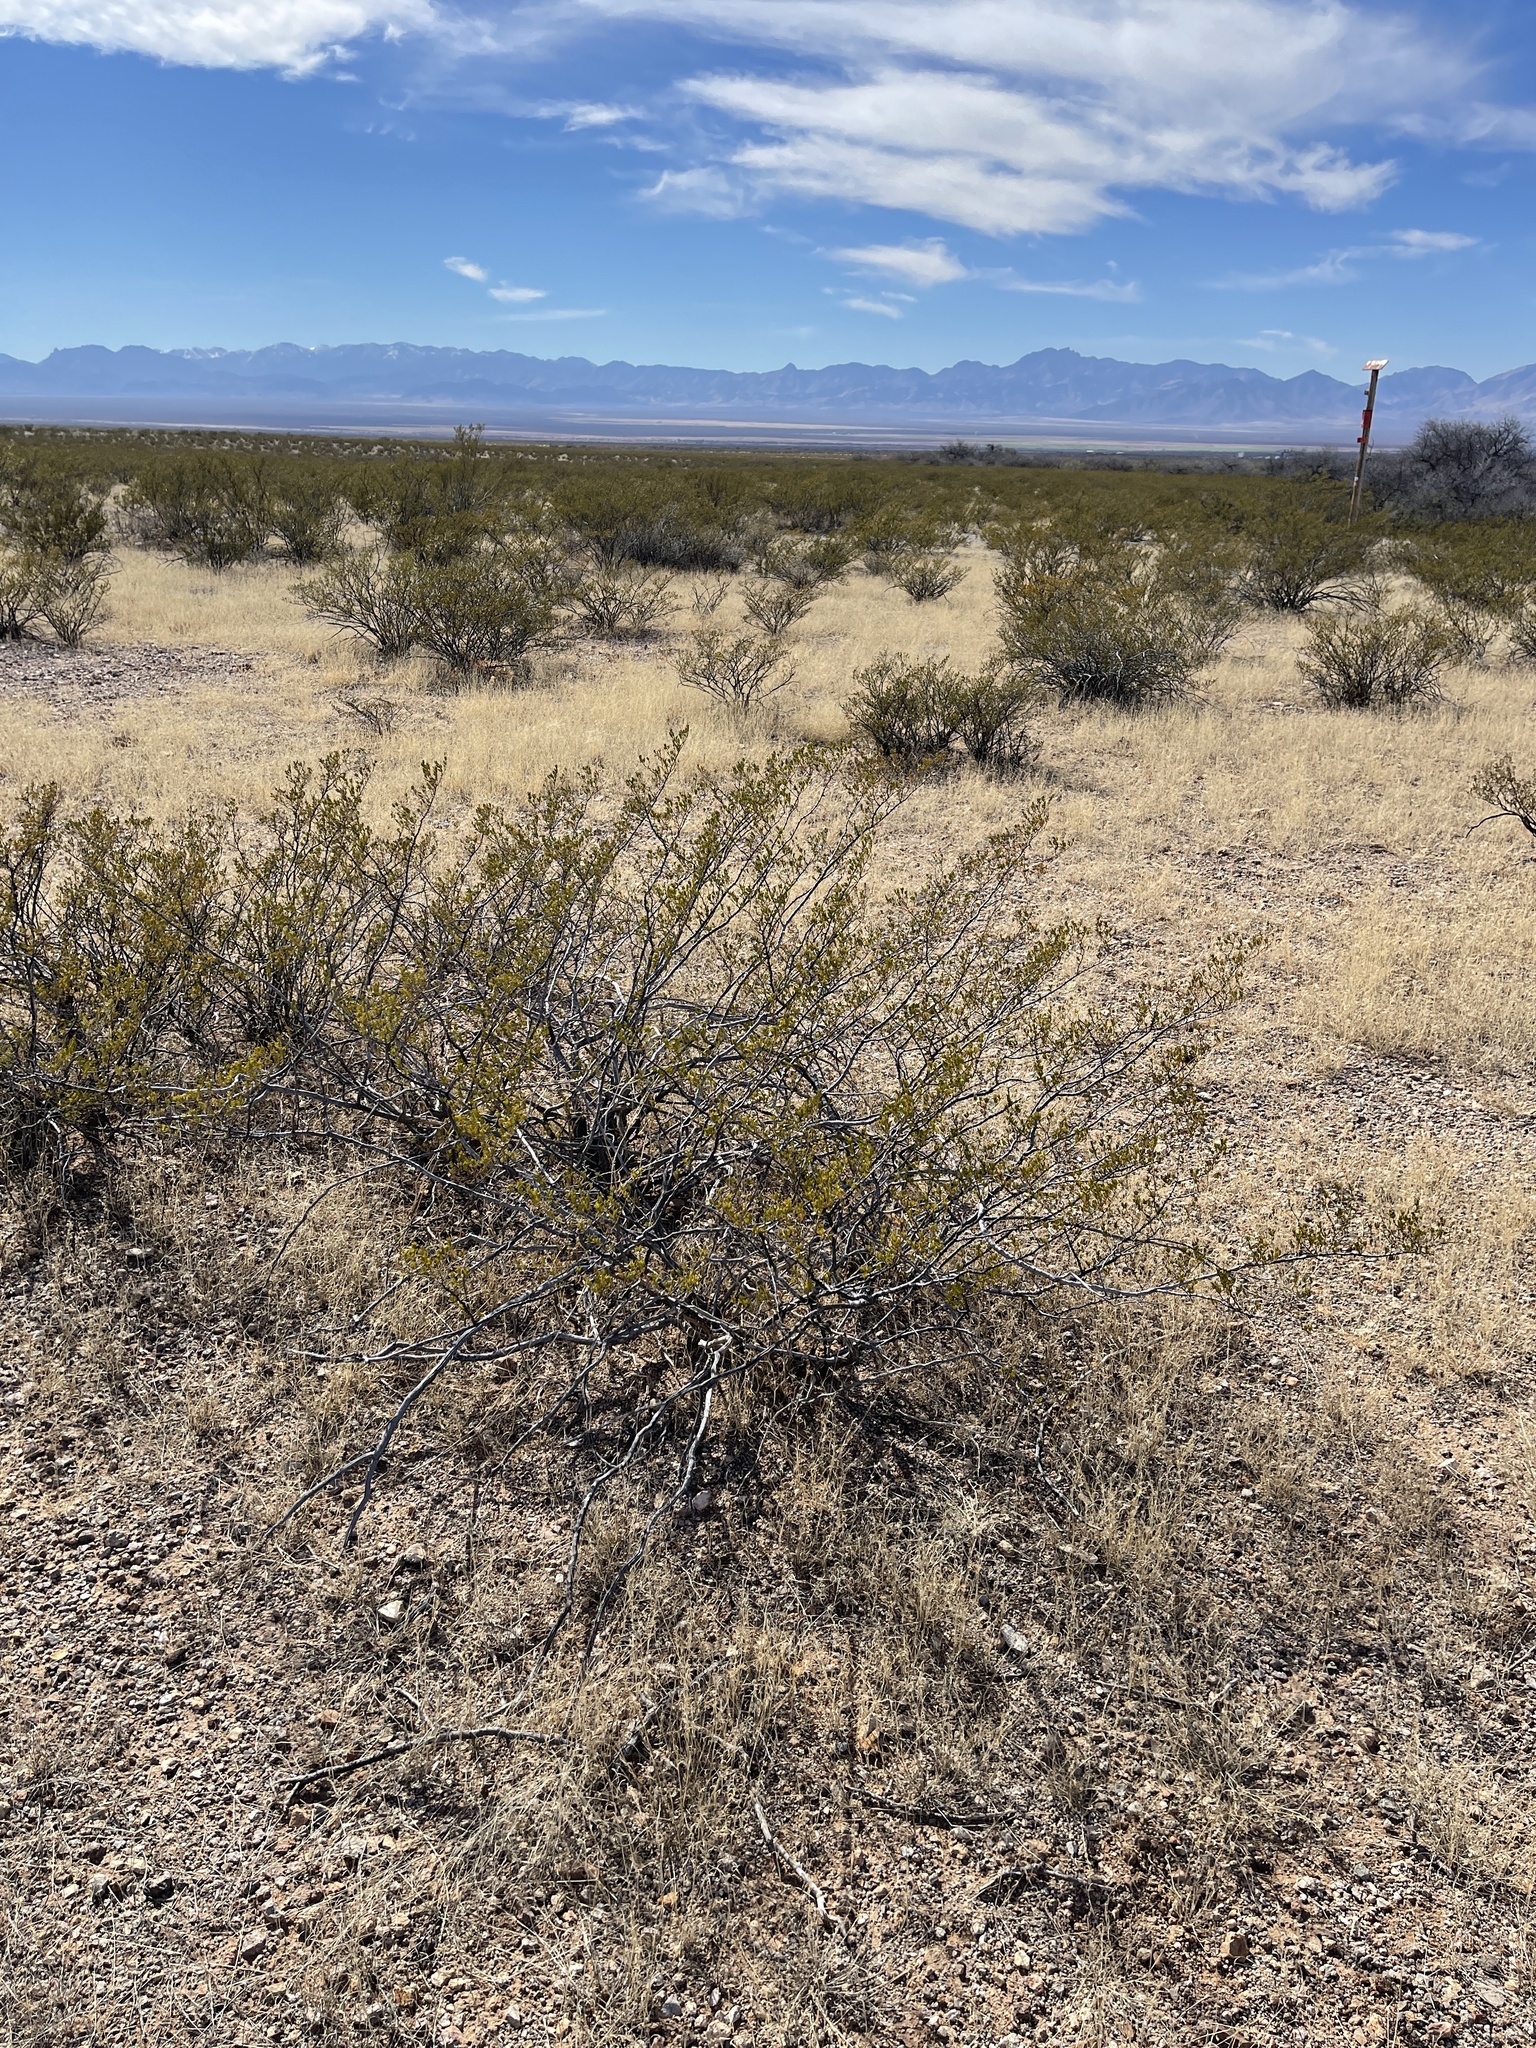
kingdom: Plantae
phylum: Tracheophyta
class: Magnoliopsida
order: Zygophyllales
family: Zygophyllaceae
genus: Larrea
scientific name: Larrea tridentata
